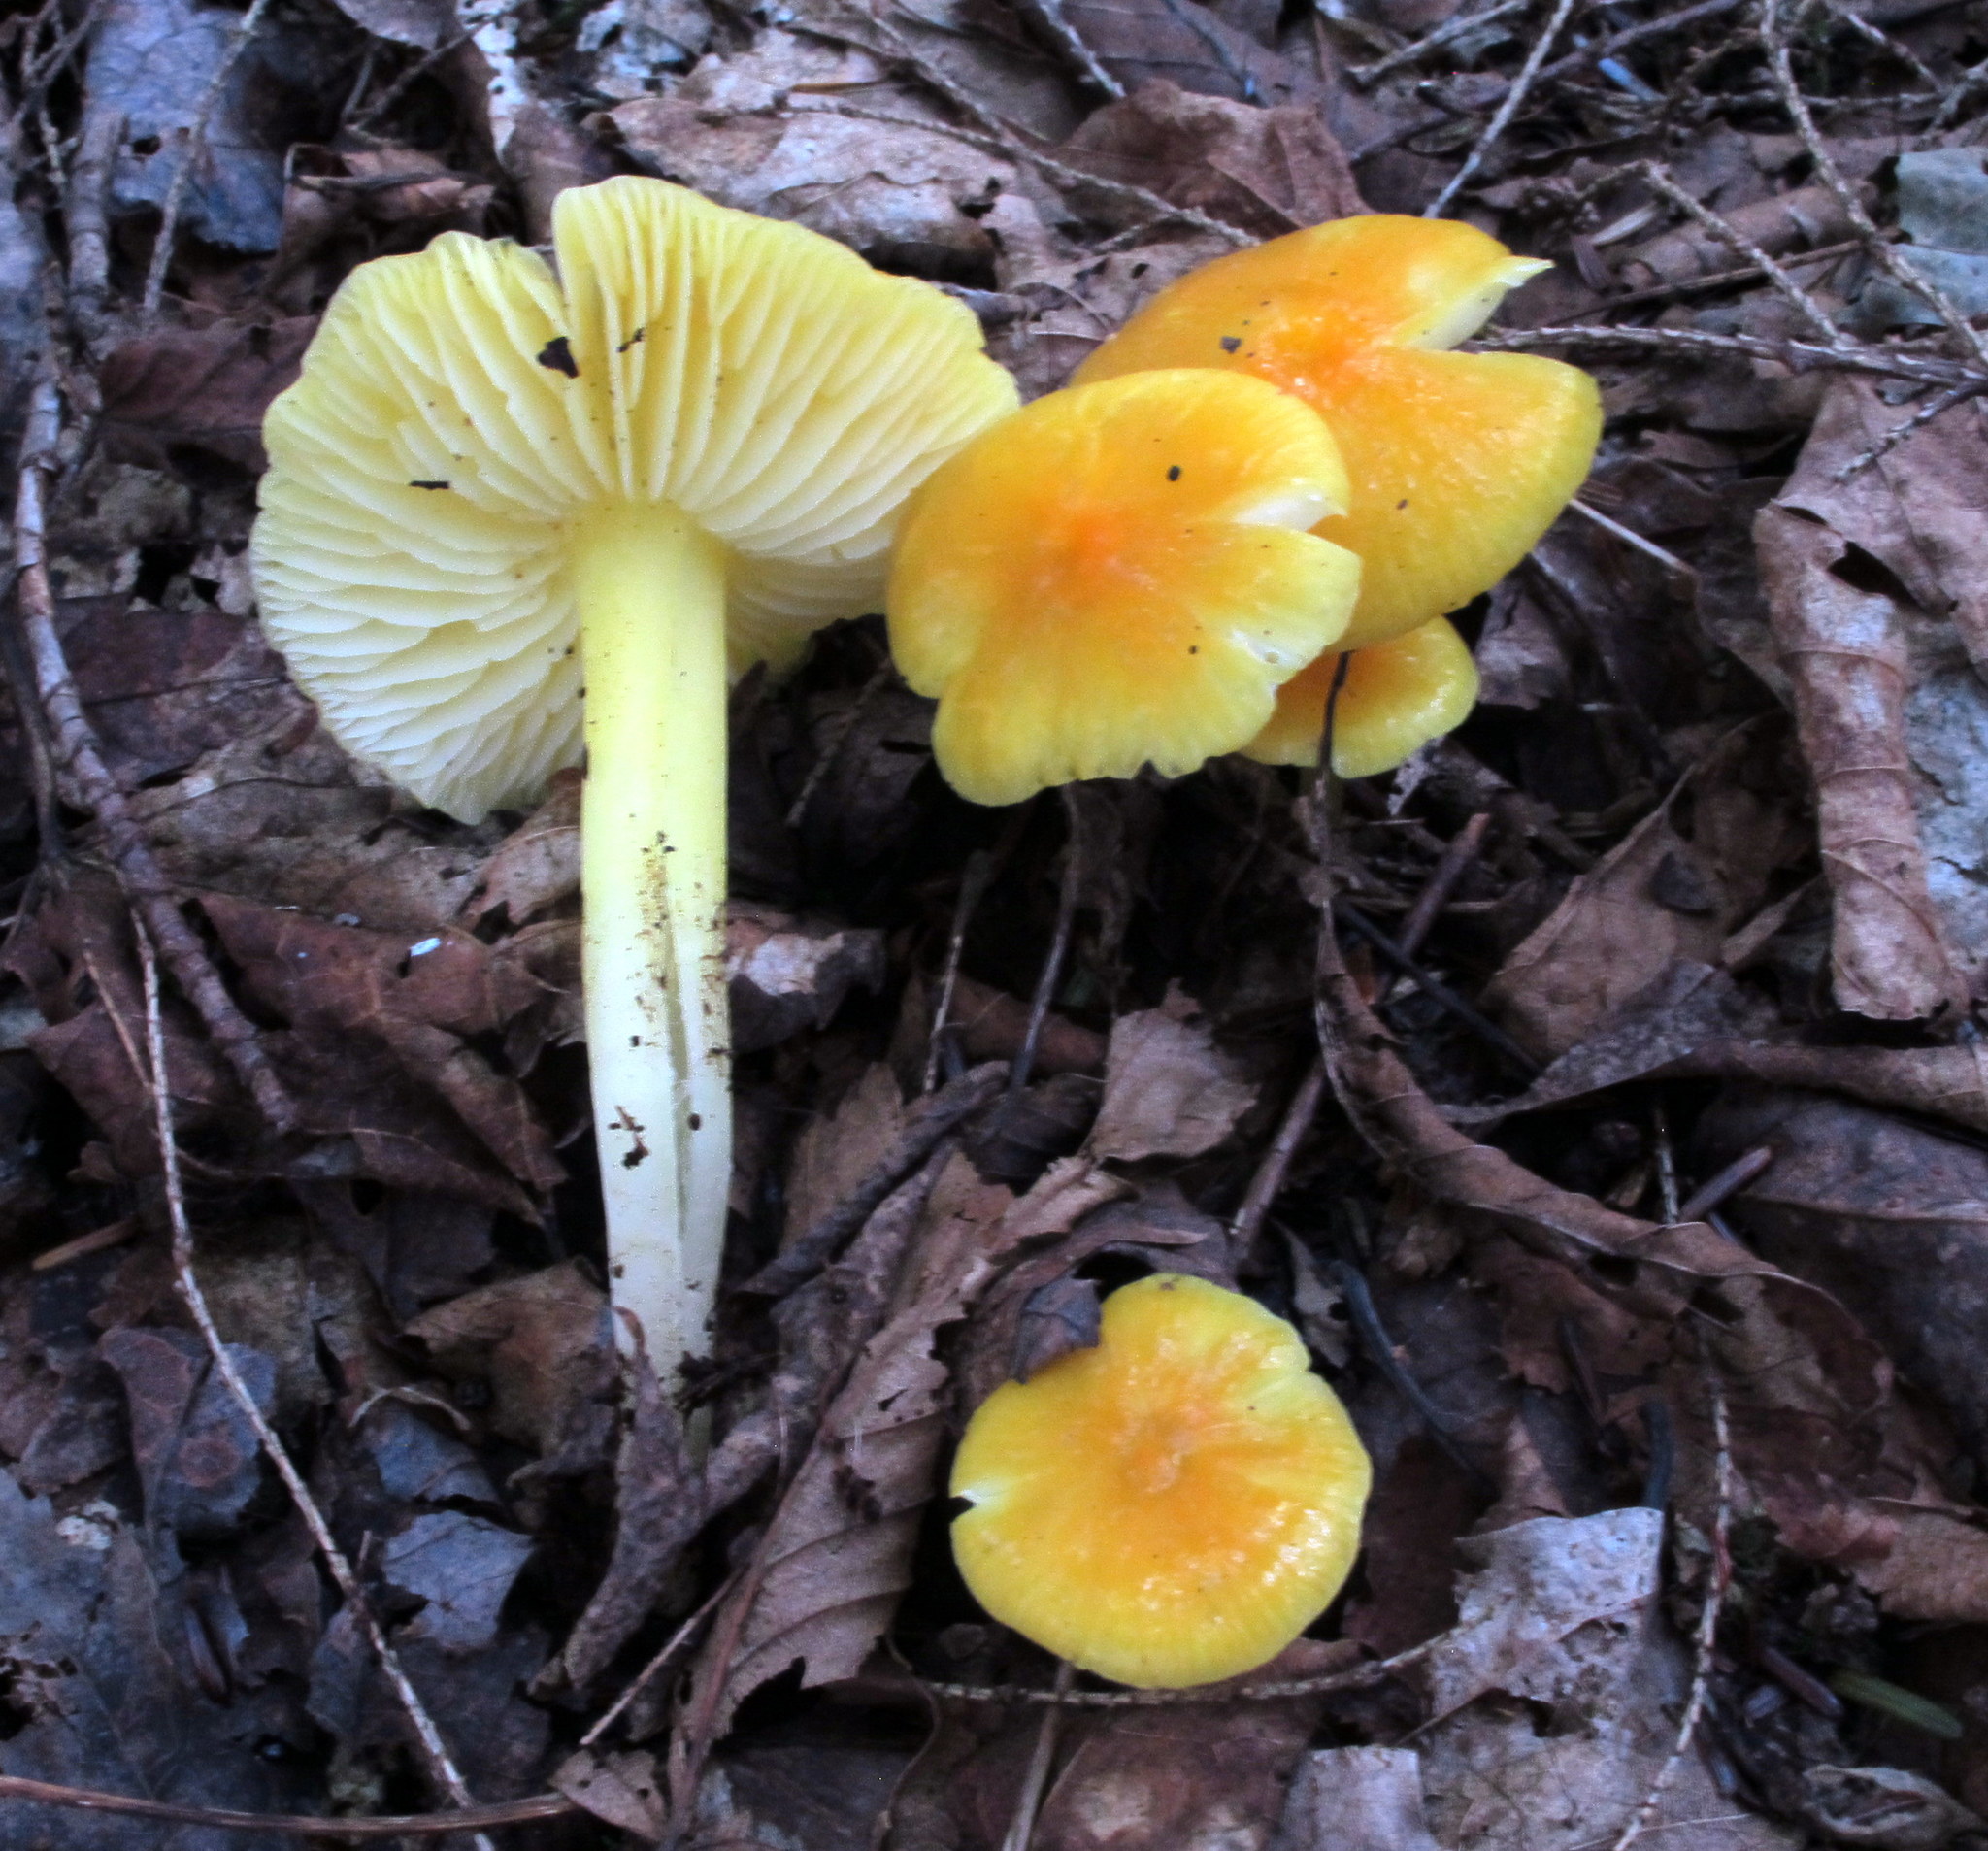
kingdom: Fungi
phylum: Basidiomycota
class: Agaricomycetes
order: Agaricales
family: Hygrophoraceae
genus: Hygrocybe
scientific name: Hygrocybe flavescens
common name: Golden waxy cap
